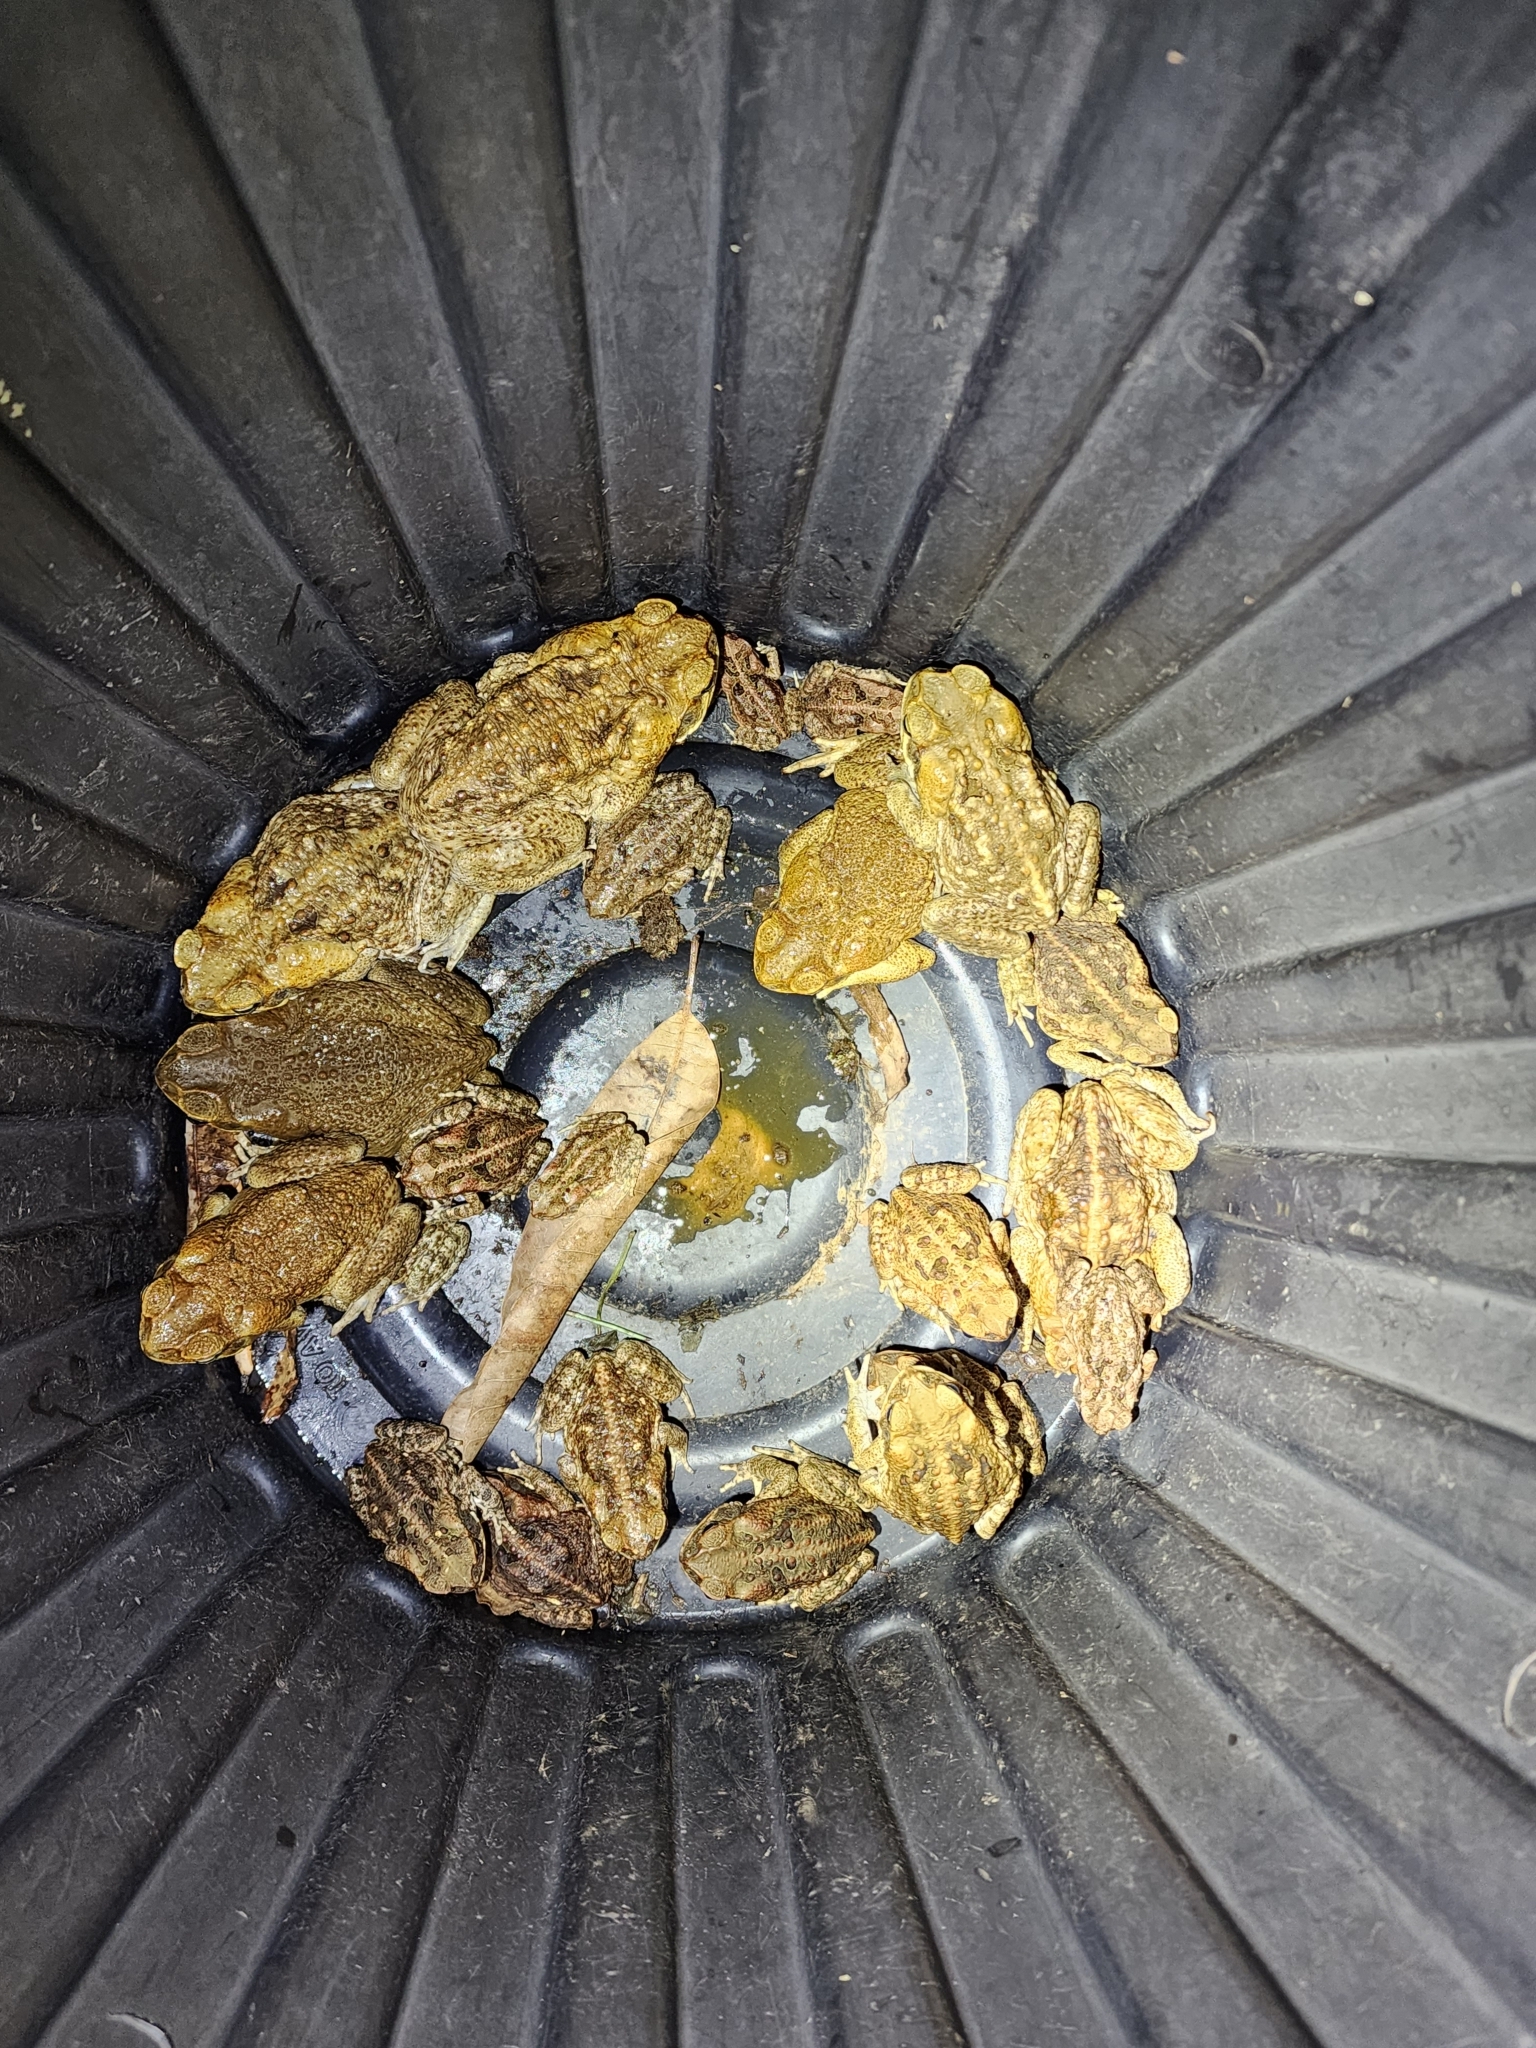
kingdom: Animalia
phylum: Chordata
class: Amphibia
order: Anura
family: Bufonidae
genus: Rhinella
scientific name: Rhinella marina
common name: Cane toad
